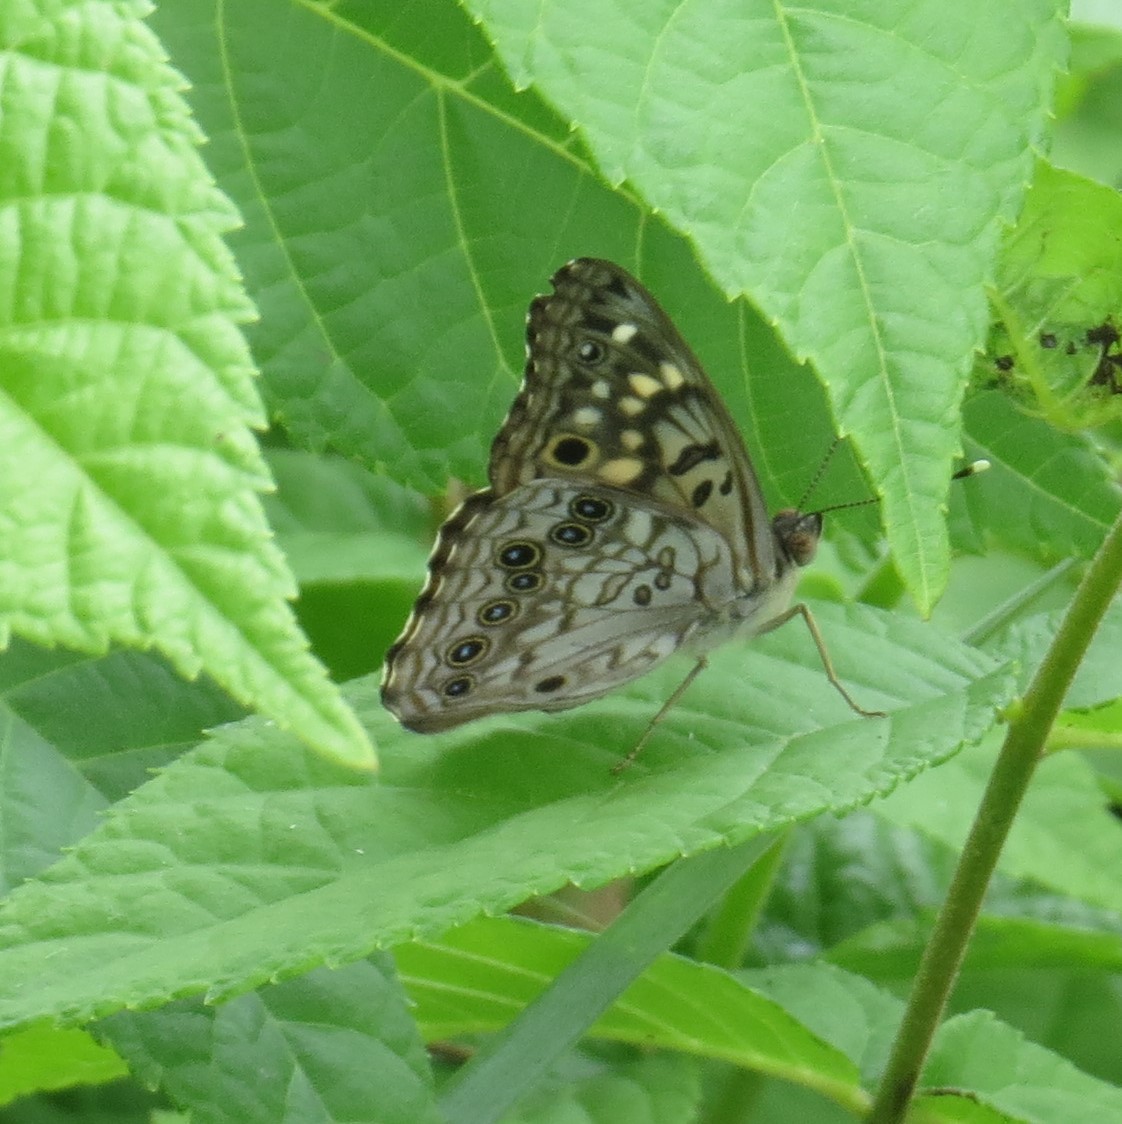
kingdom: Animalia
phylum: Arthropoda
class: Insecta
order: Lepidoptera
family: Nymphalidae
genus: Asterocampa
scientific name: Asterocampa celtis
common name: Hackberry emperor
